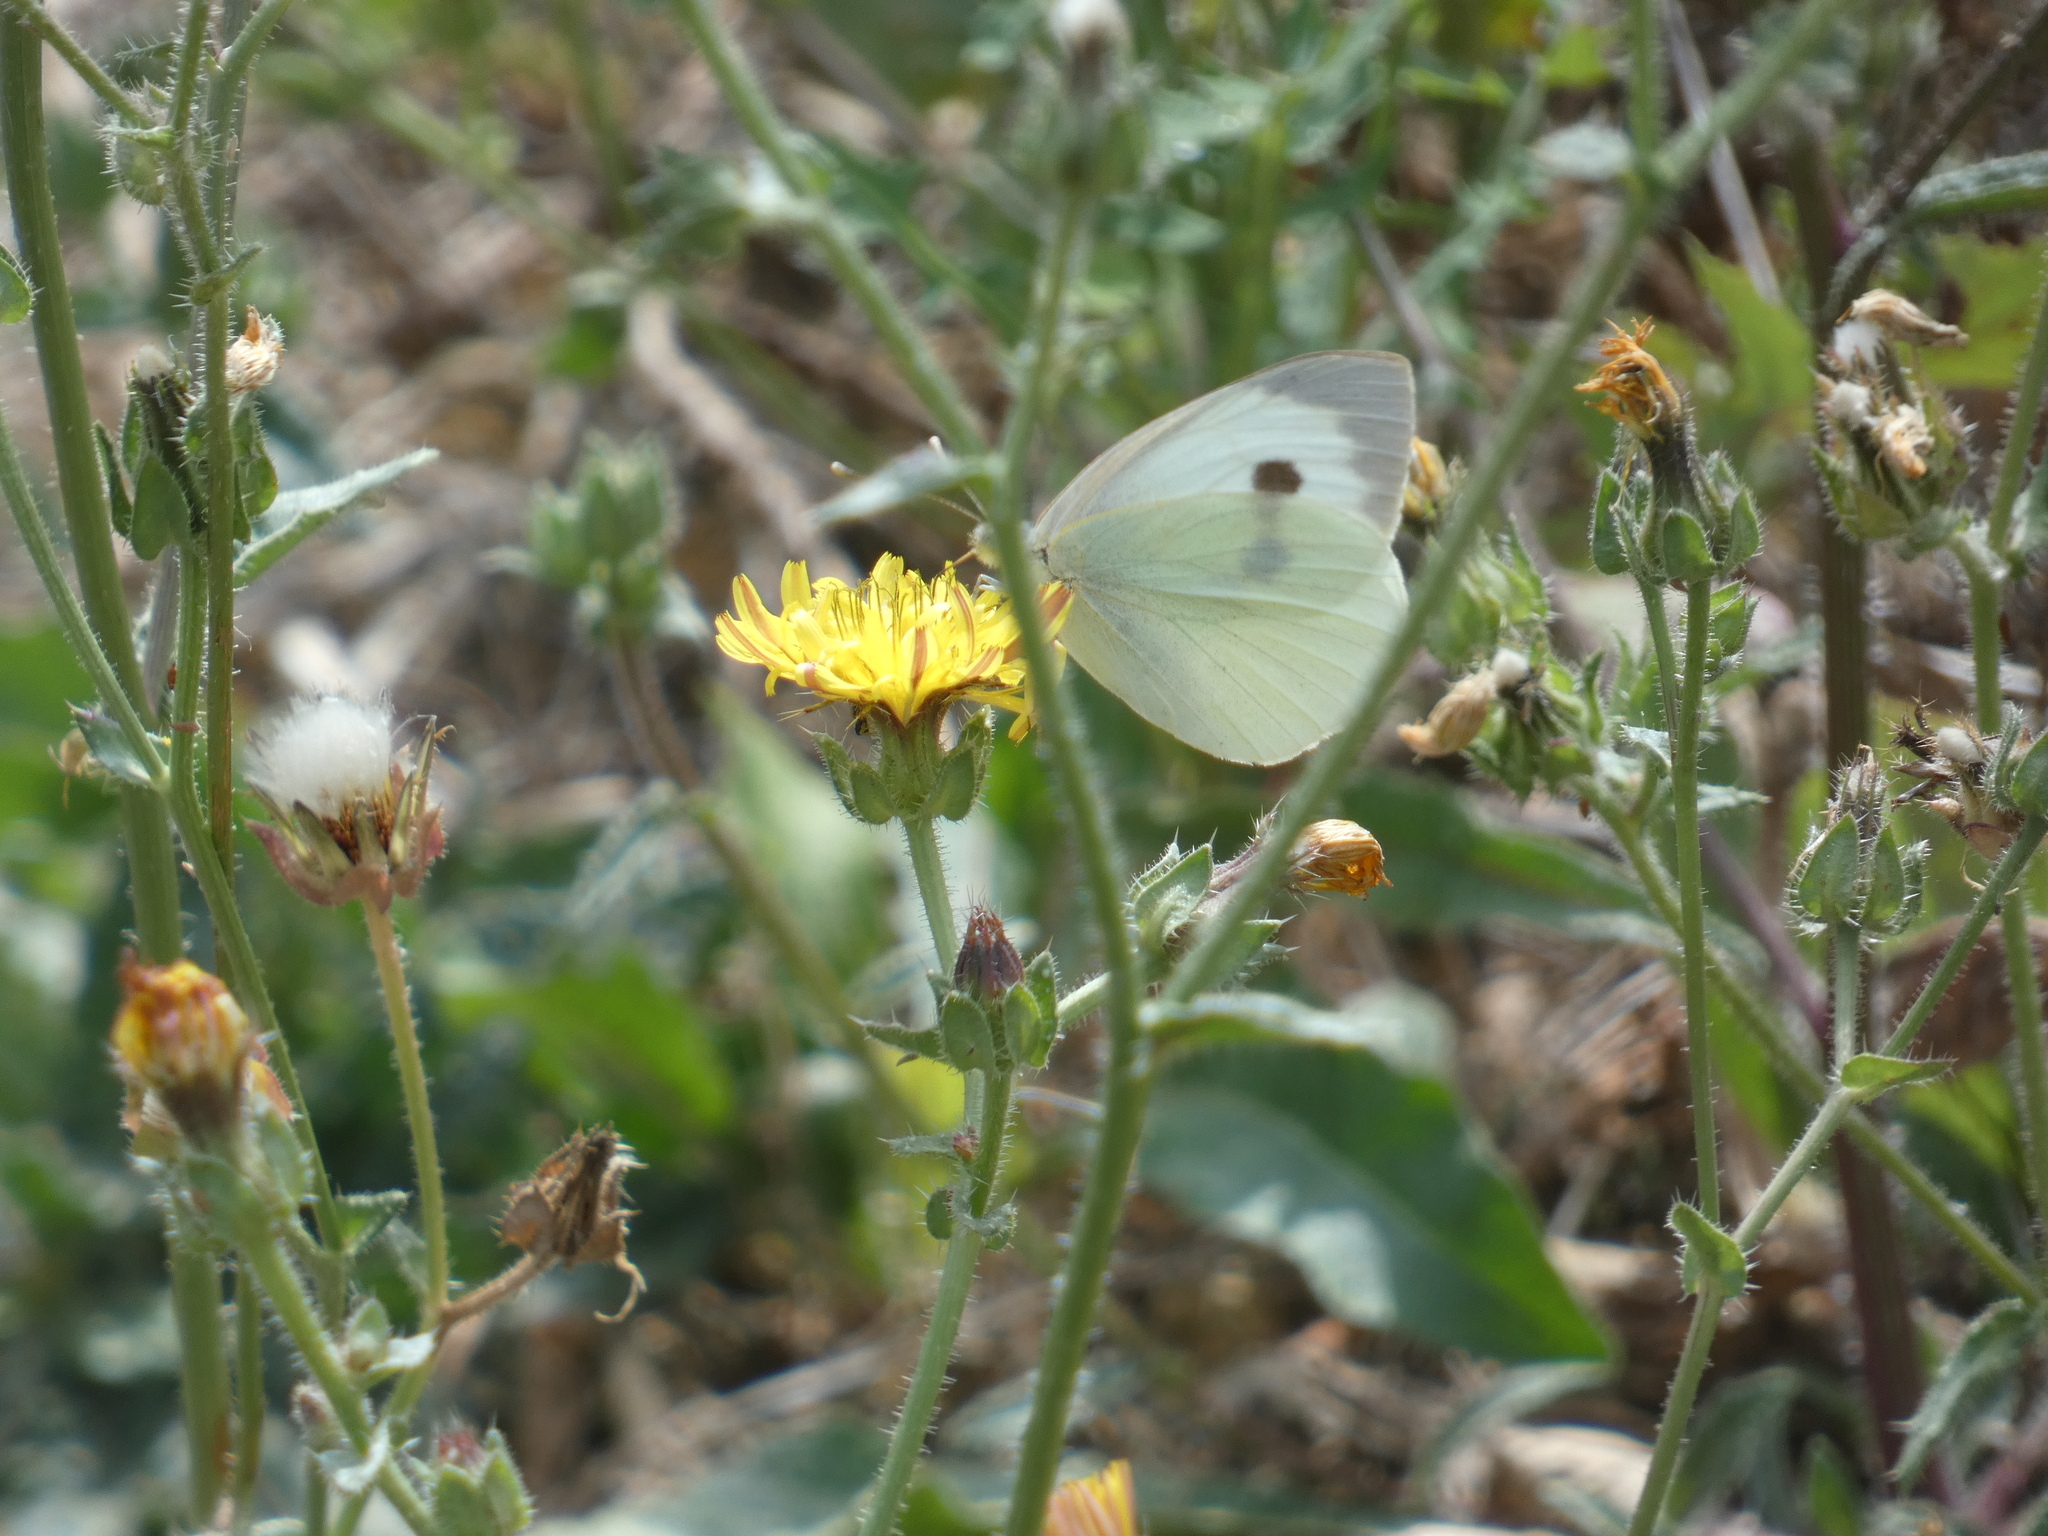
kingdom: Animalia
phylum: Arthropoda
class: Insecta
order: Lepidoptera
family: Pieridae
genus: Pieris
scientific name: Pieris brassicae
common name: Large white
